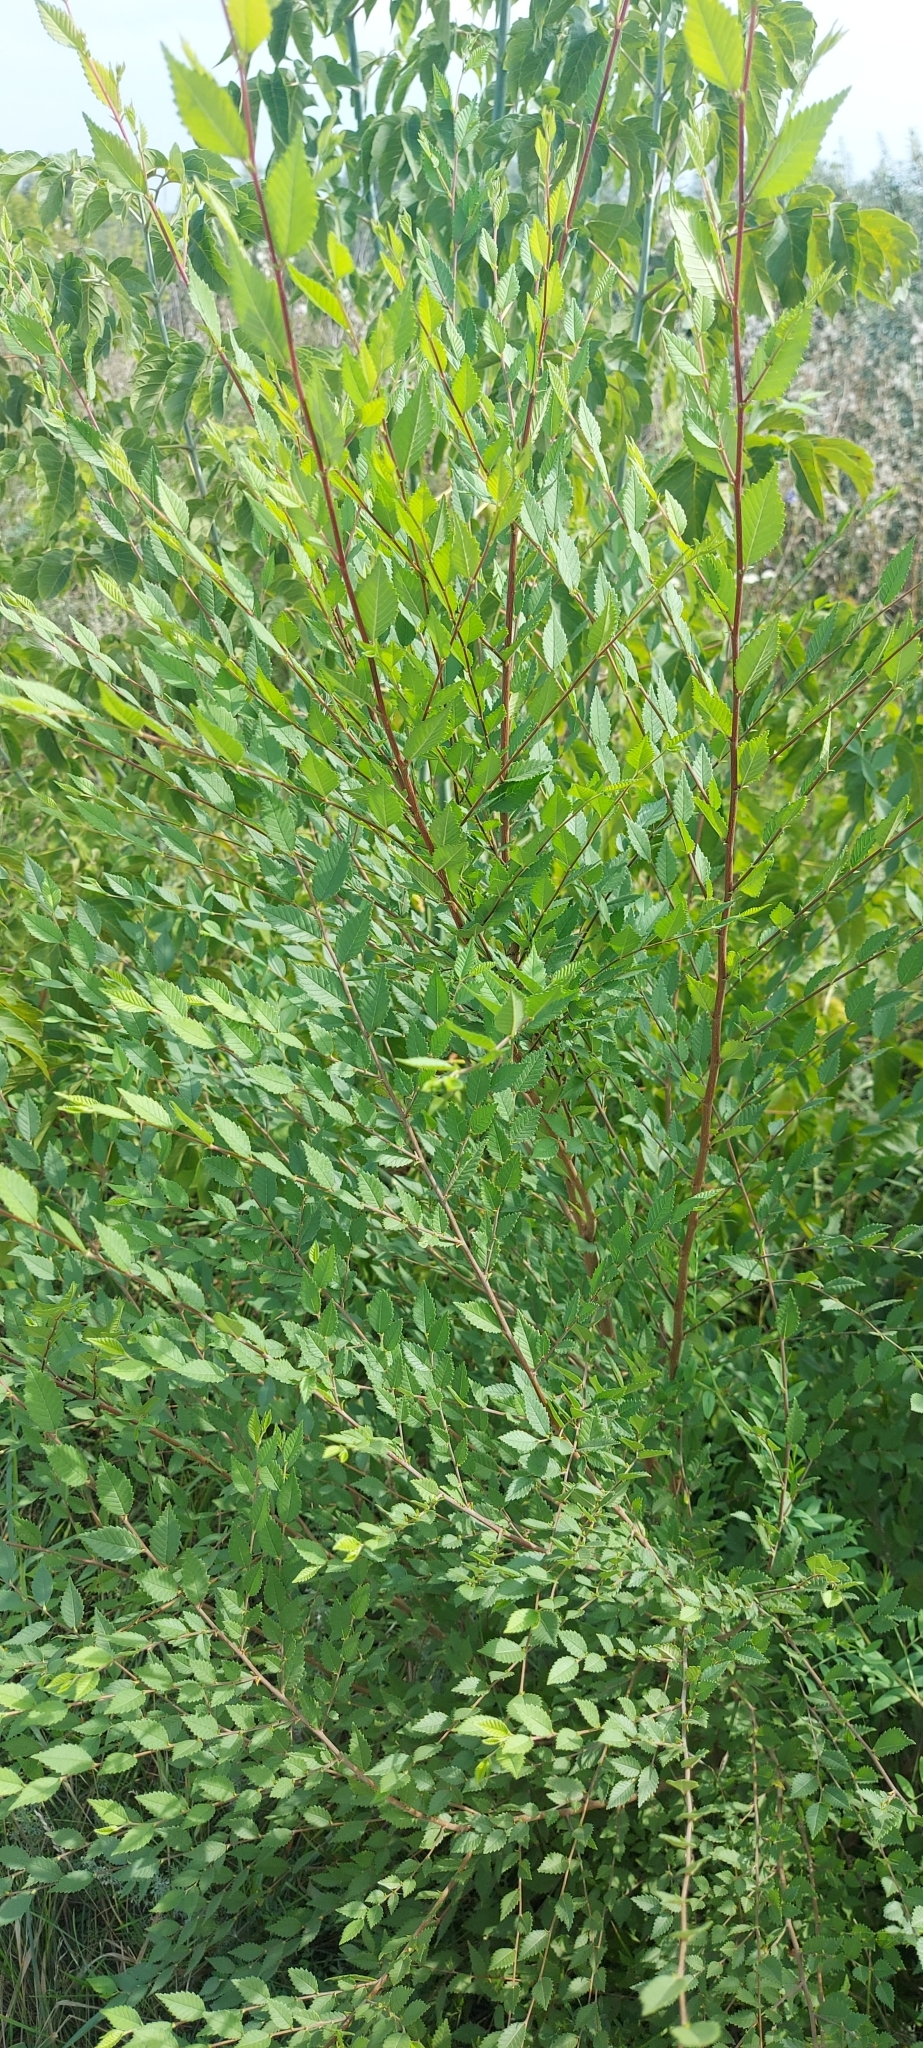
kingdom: Plantae
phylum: Tracheophyta
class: Magnoliopsida
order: Rosales
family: Ulmaceae
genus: Ulmus
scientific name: Ulmus pumila
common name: Siberian elm
